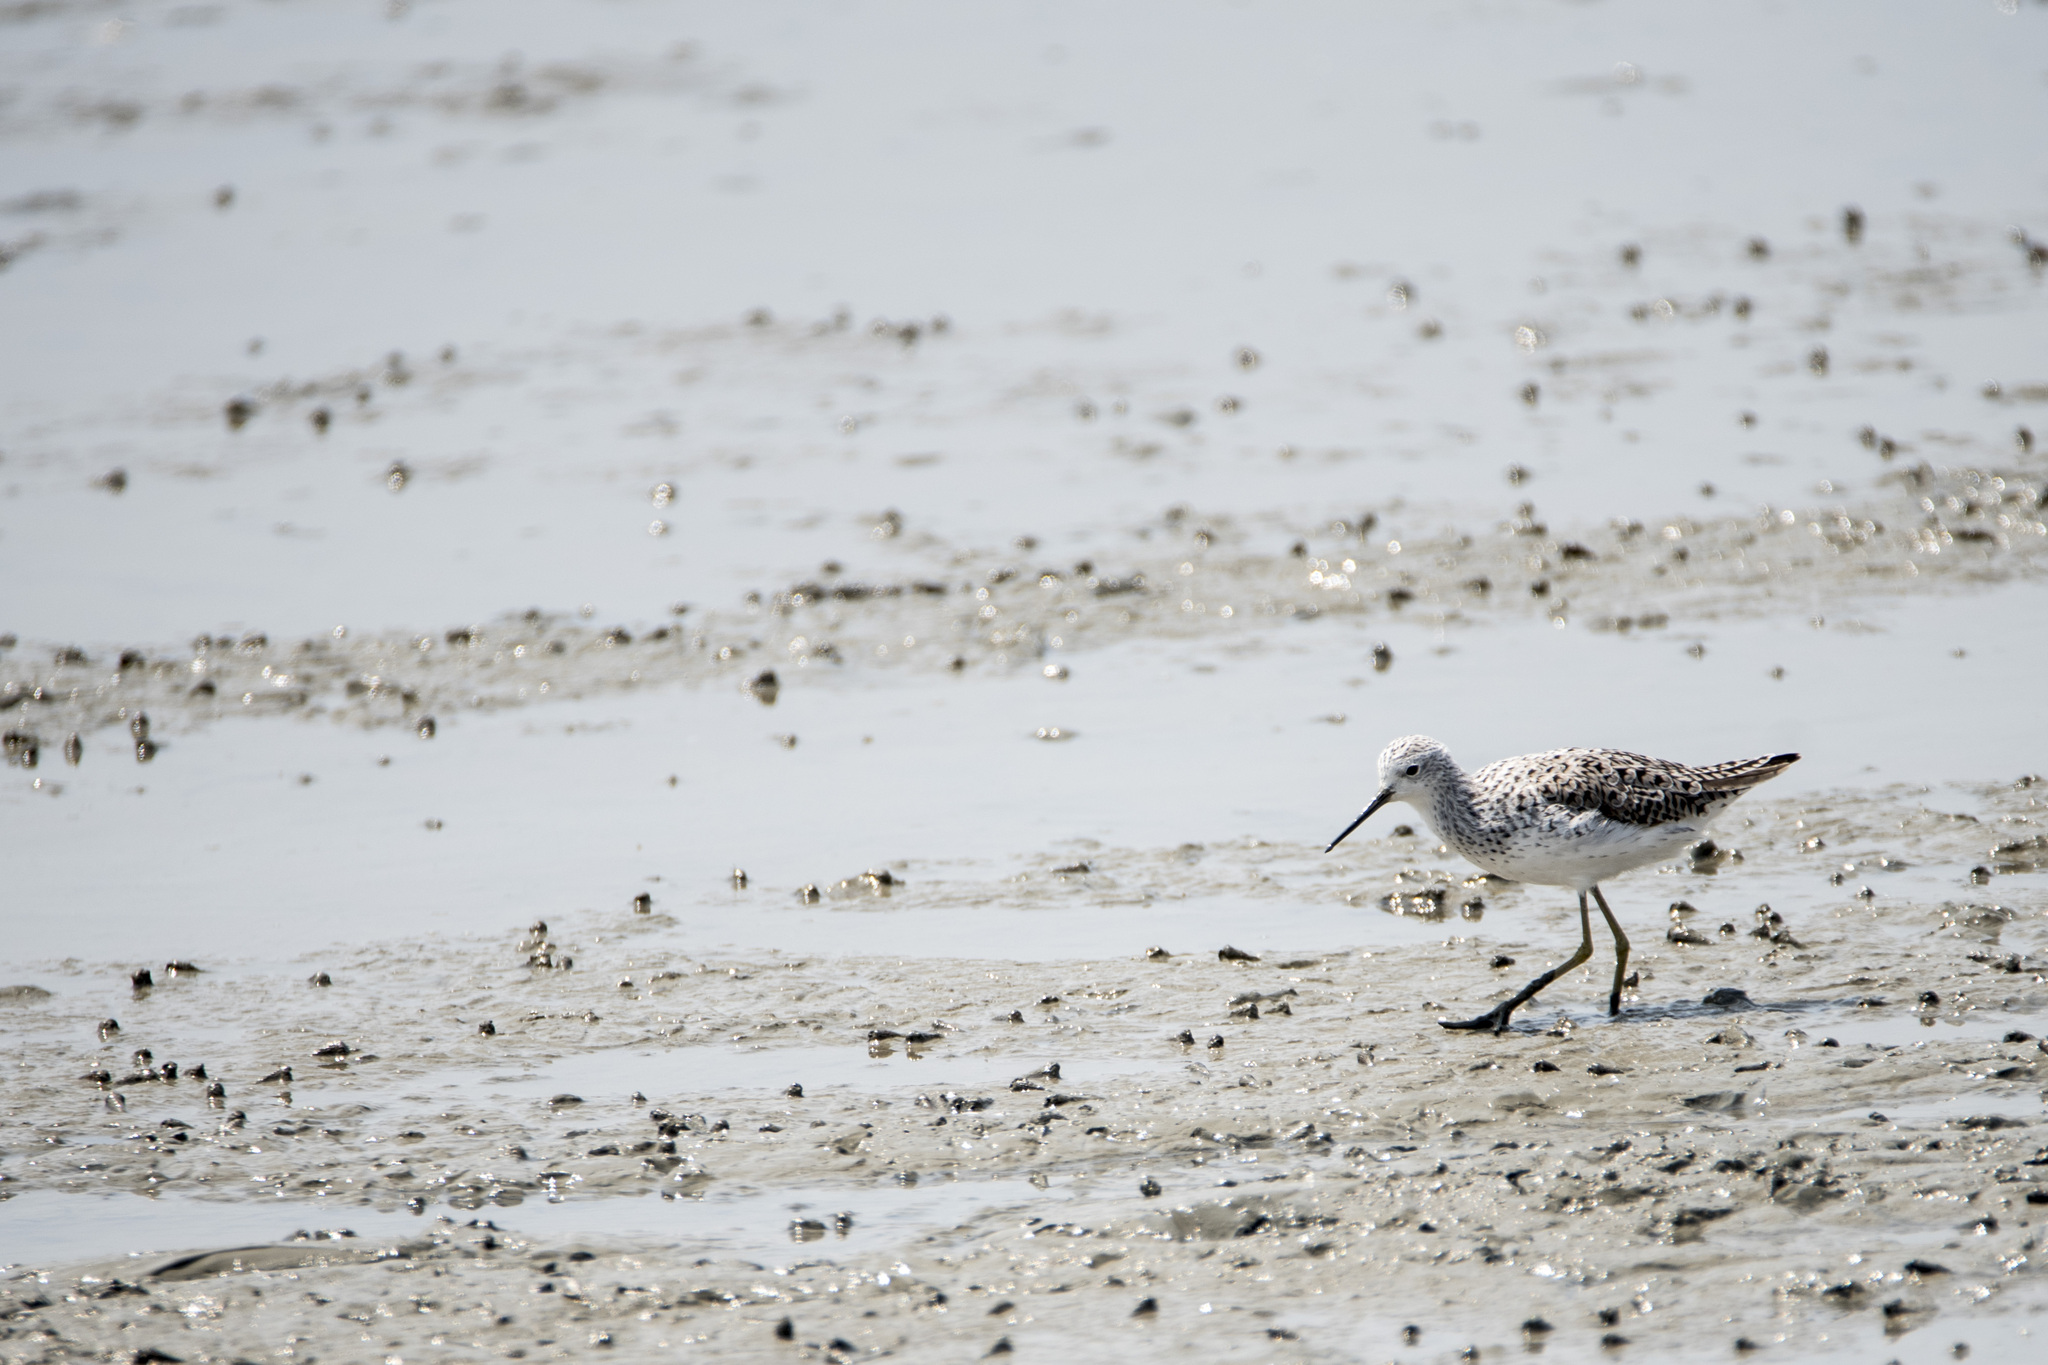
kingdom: Animalia
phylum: Chordata
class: Aves
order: Charadriiformes
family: Scolopacidae
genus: Tringa
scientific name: Tringa stagnatilis
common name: Marsh sandpiper
